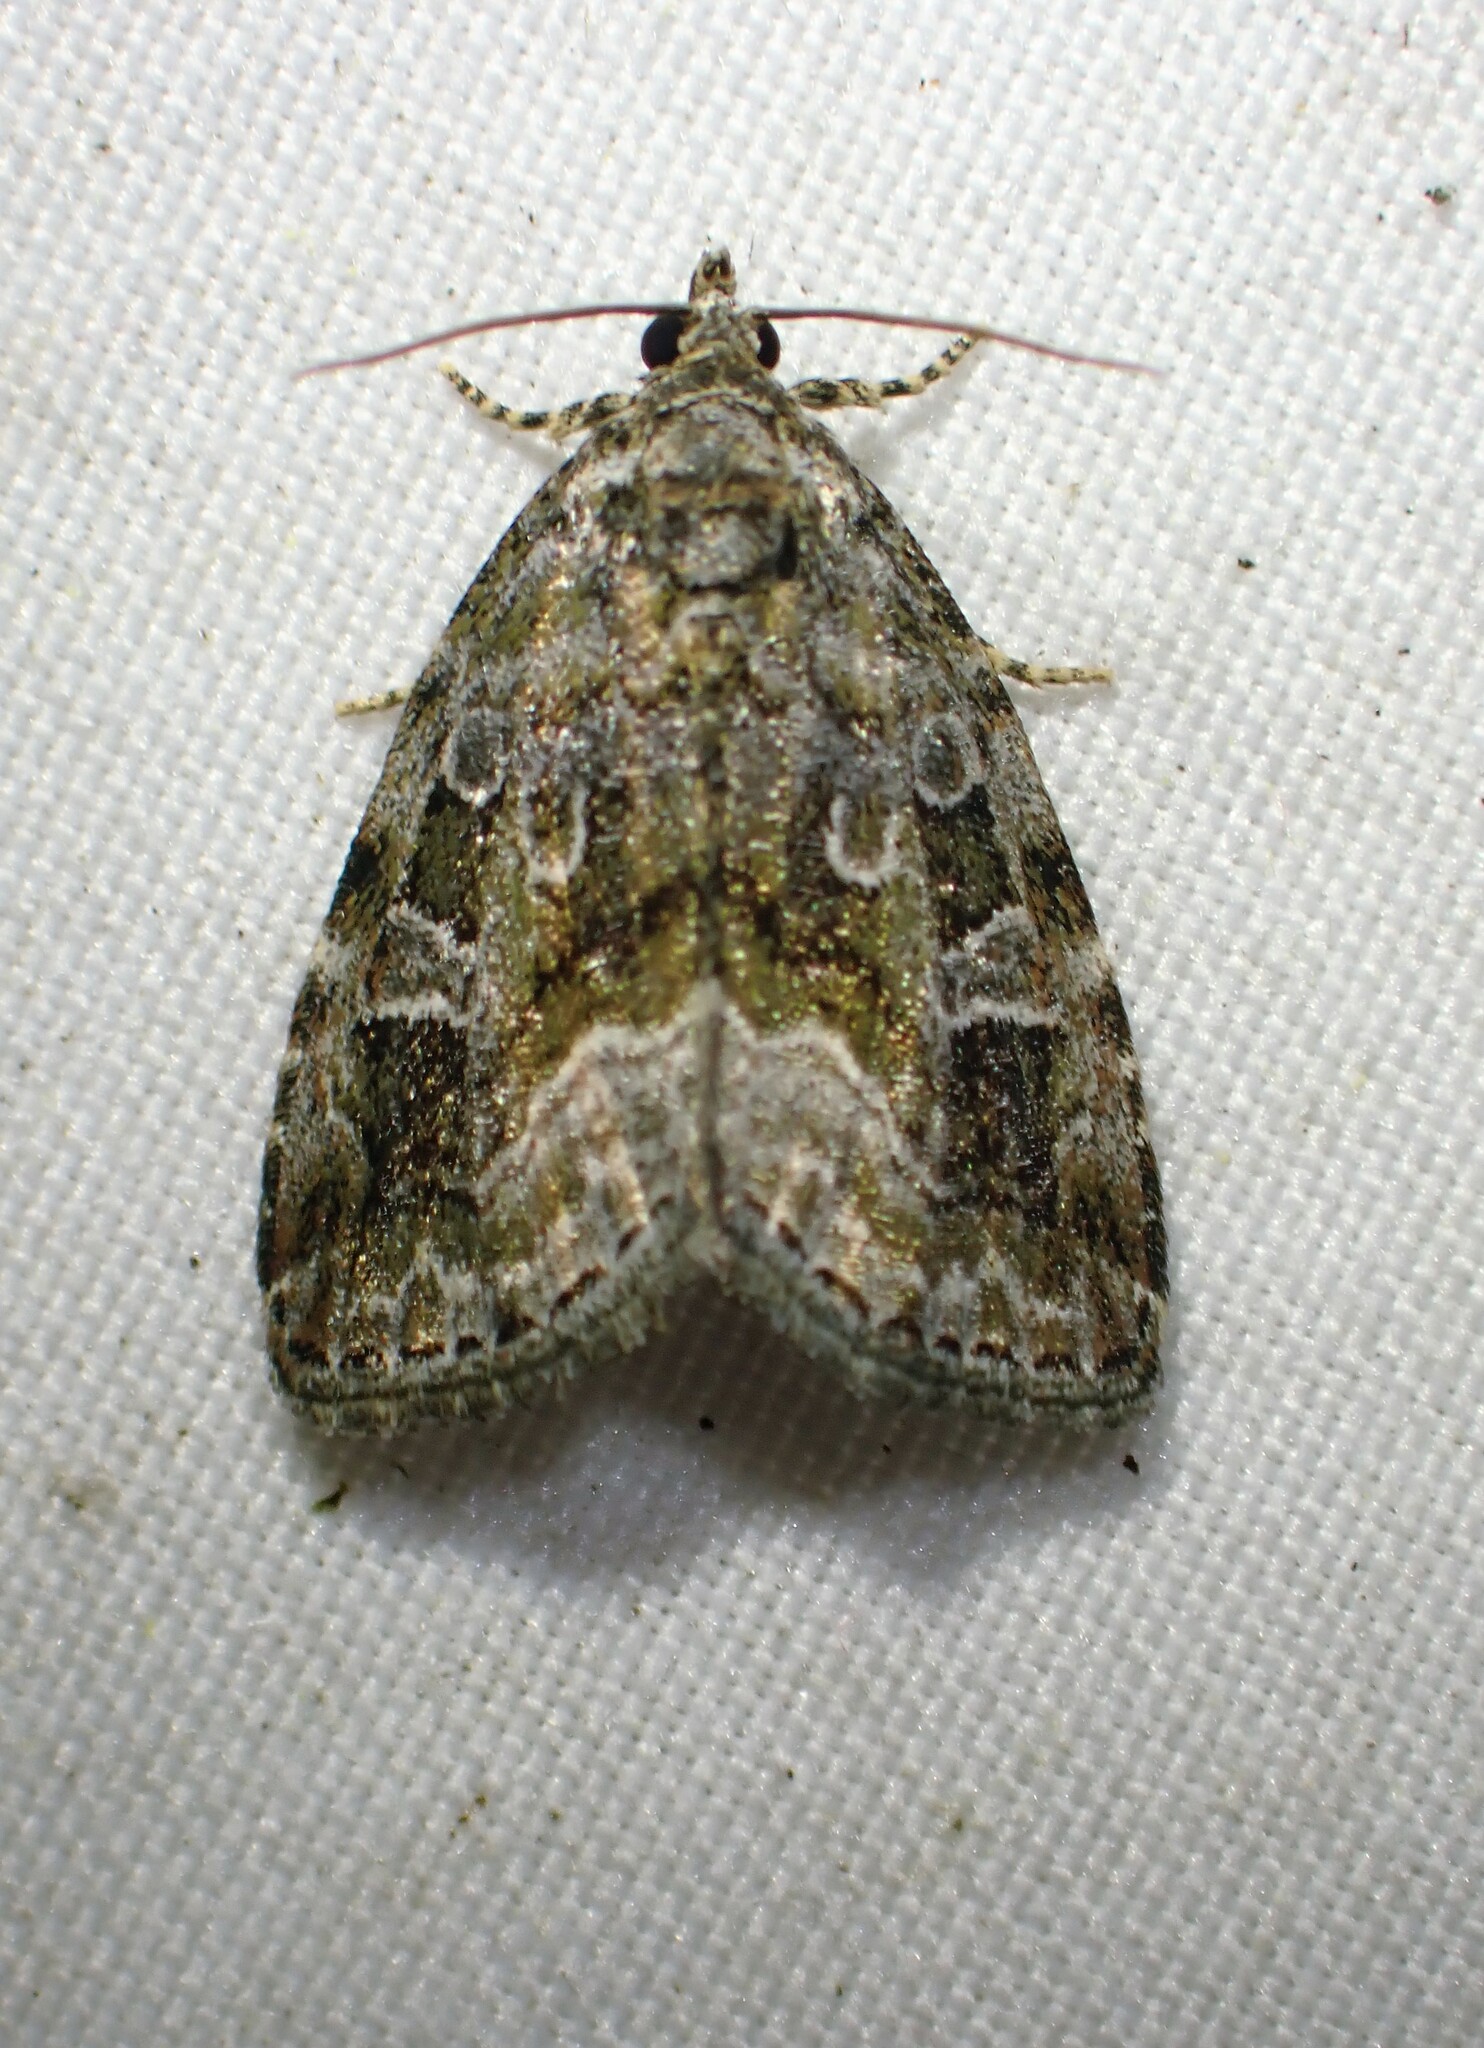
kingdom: Animalia
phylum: Arthropoda
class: Insecta
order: Lepidoptera
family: Noctuidae
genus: Protodeltote
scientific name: Protodeltote muscosula
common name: Large mossy glyph
